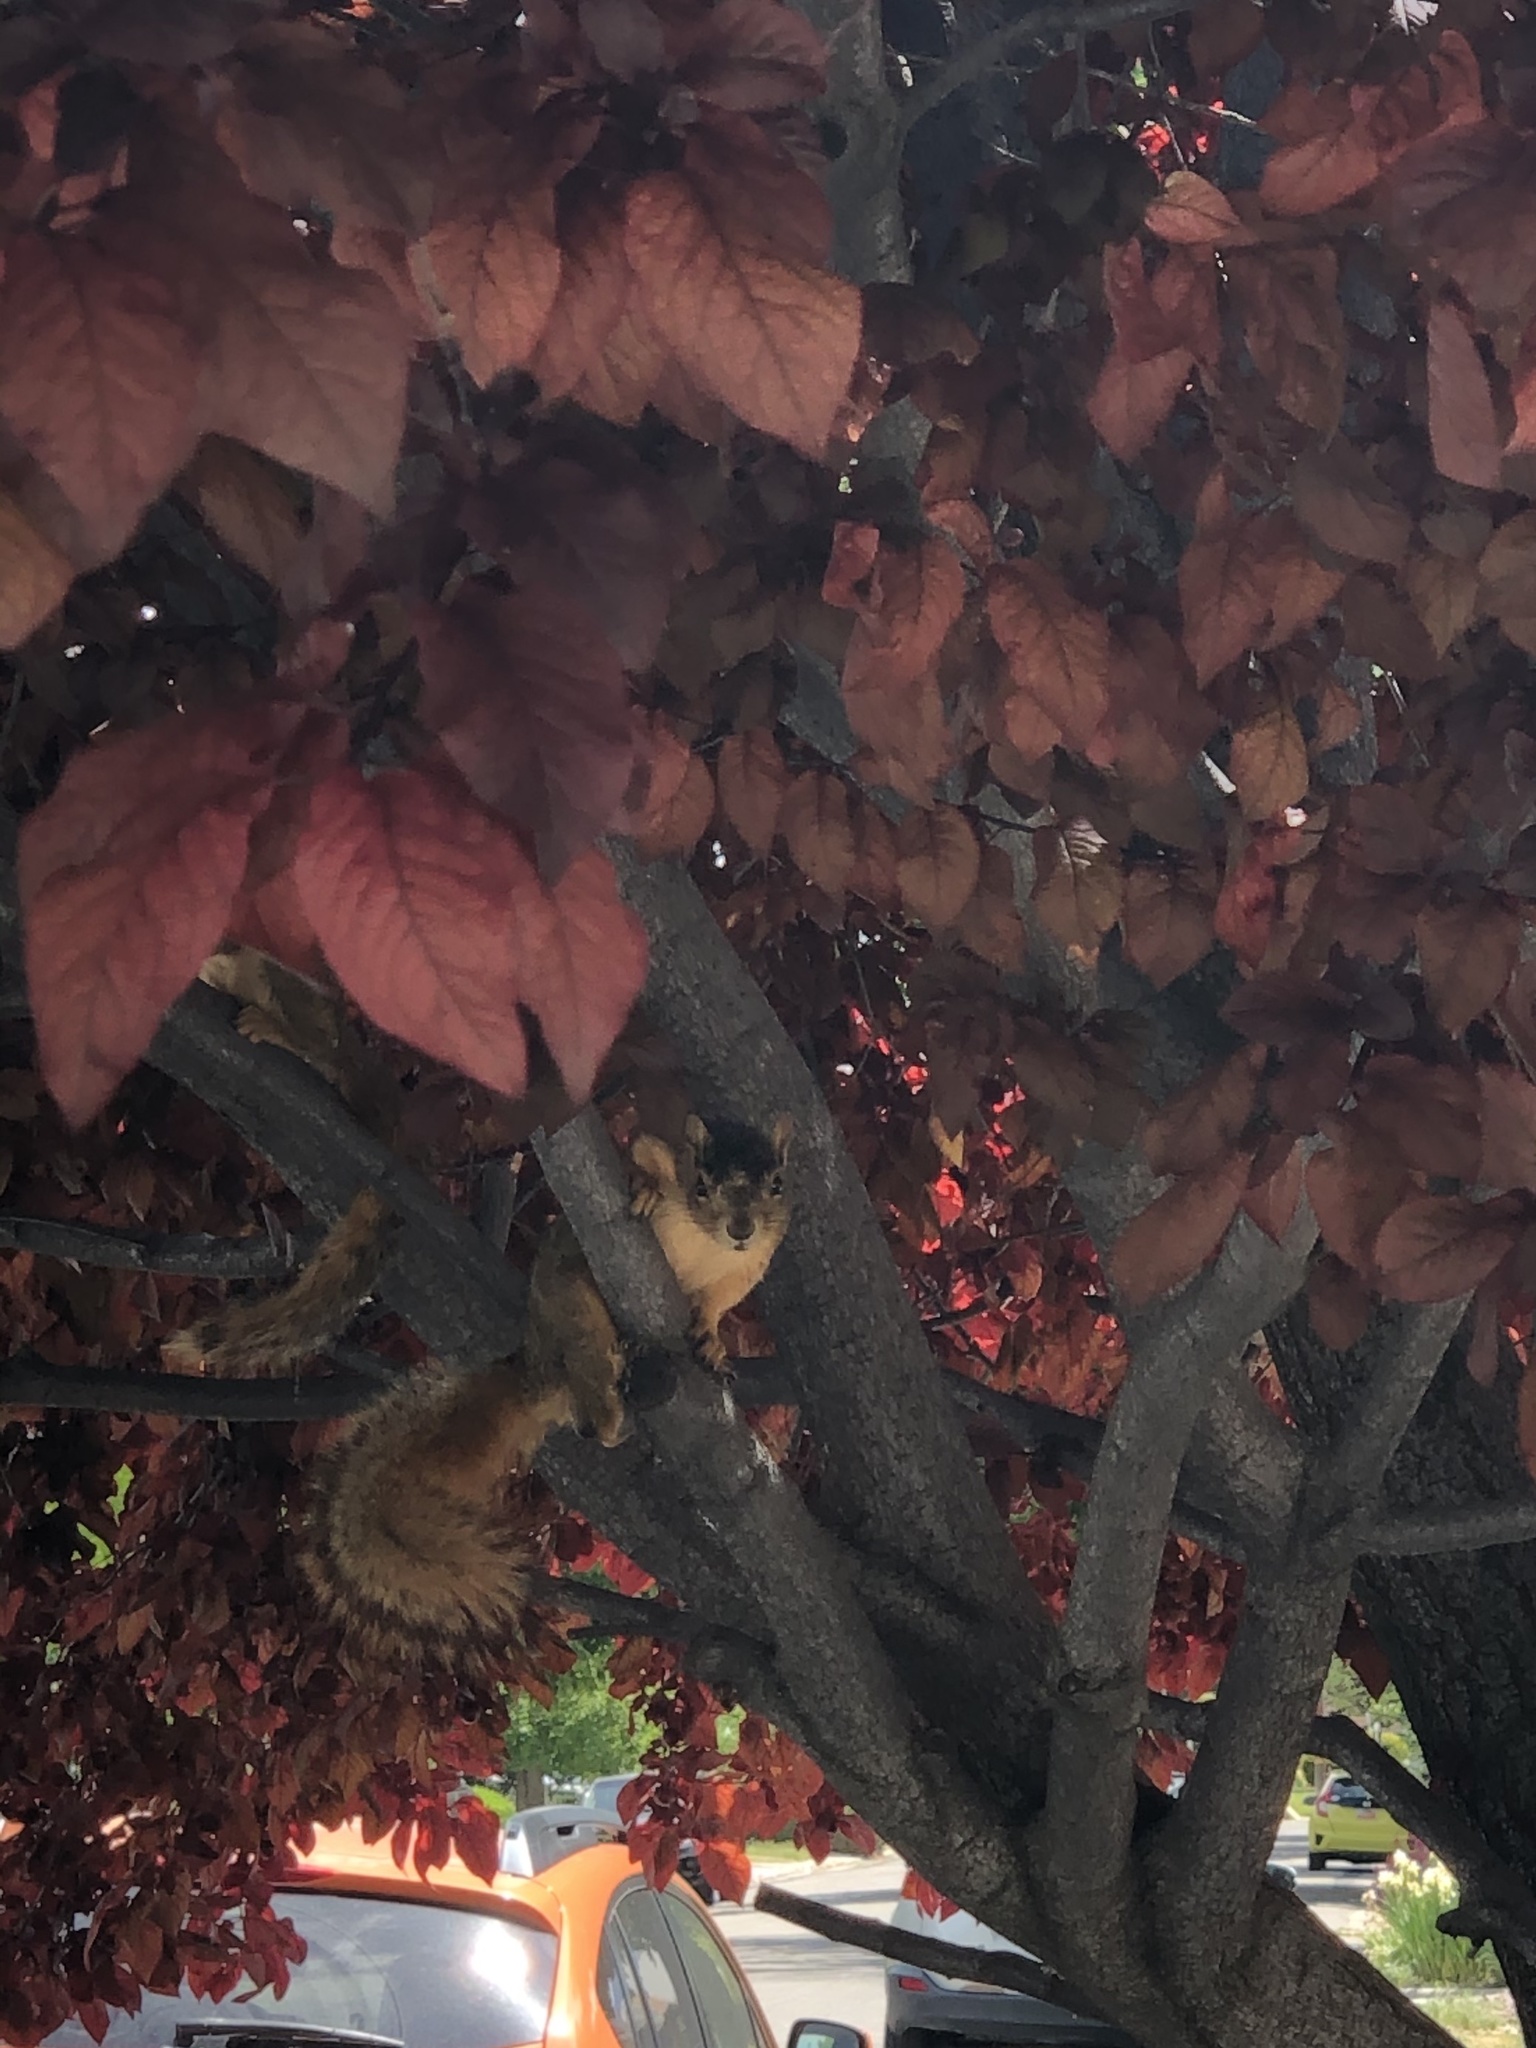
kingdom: Animalia
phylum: Chordata
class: Mammalia
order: Rodentia
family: Sciuridae
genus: Sciurus
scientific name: Sciurus niger
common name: Fox squirrel
